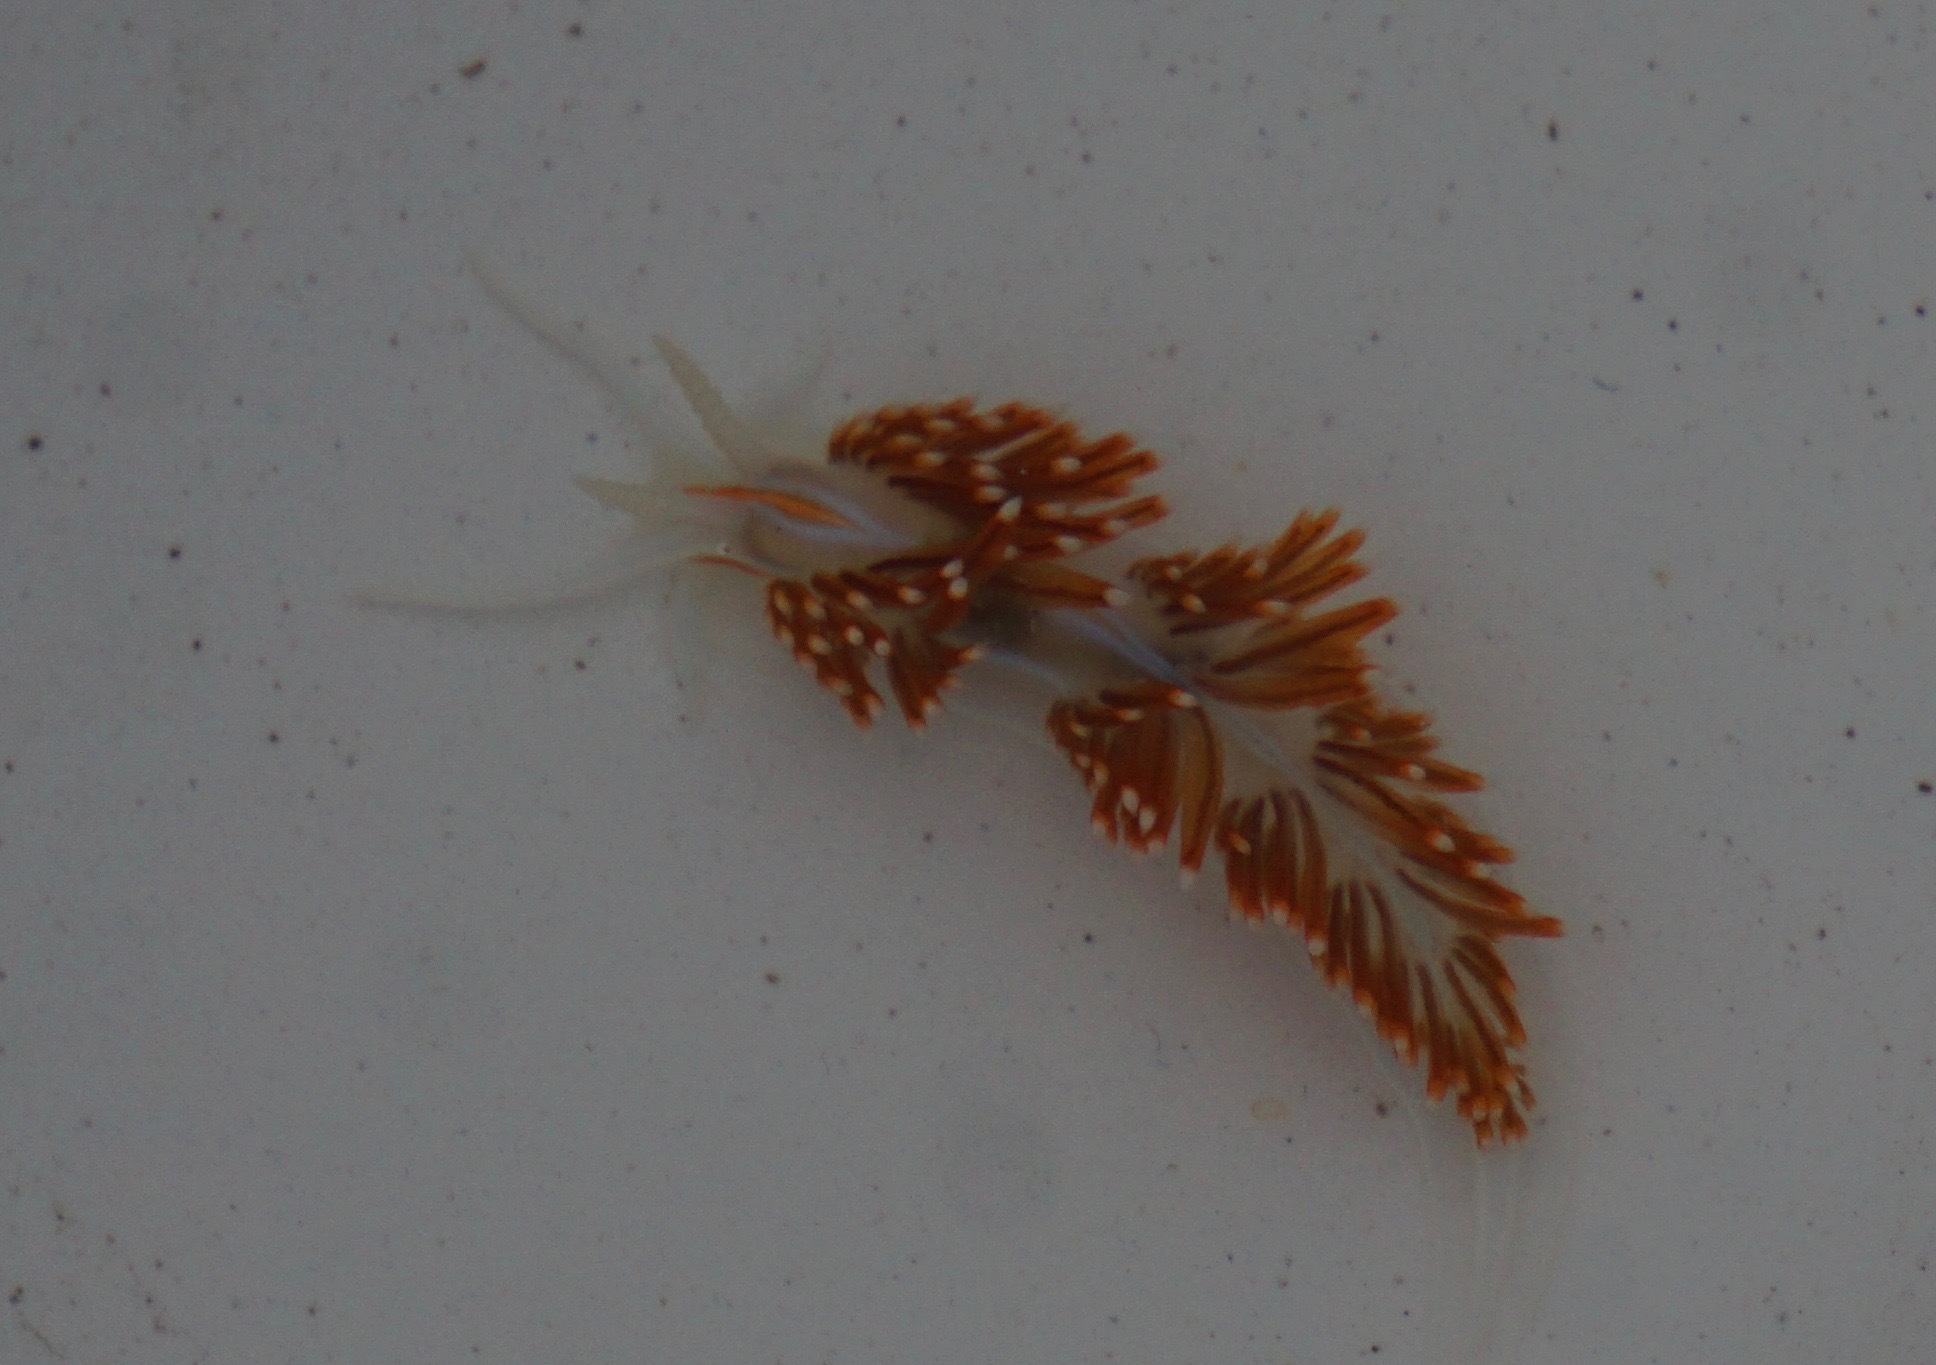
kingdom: Animalia
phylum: Mollusca
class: Gastropoda
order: Nudibranchia
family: Myrrhinidae
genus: Hermissenda
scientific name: Hermissenda opalescens
